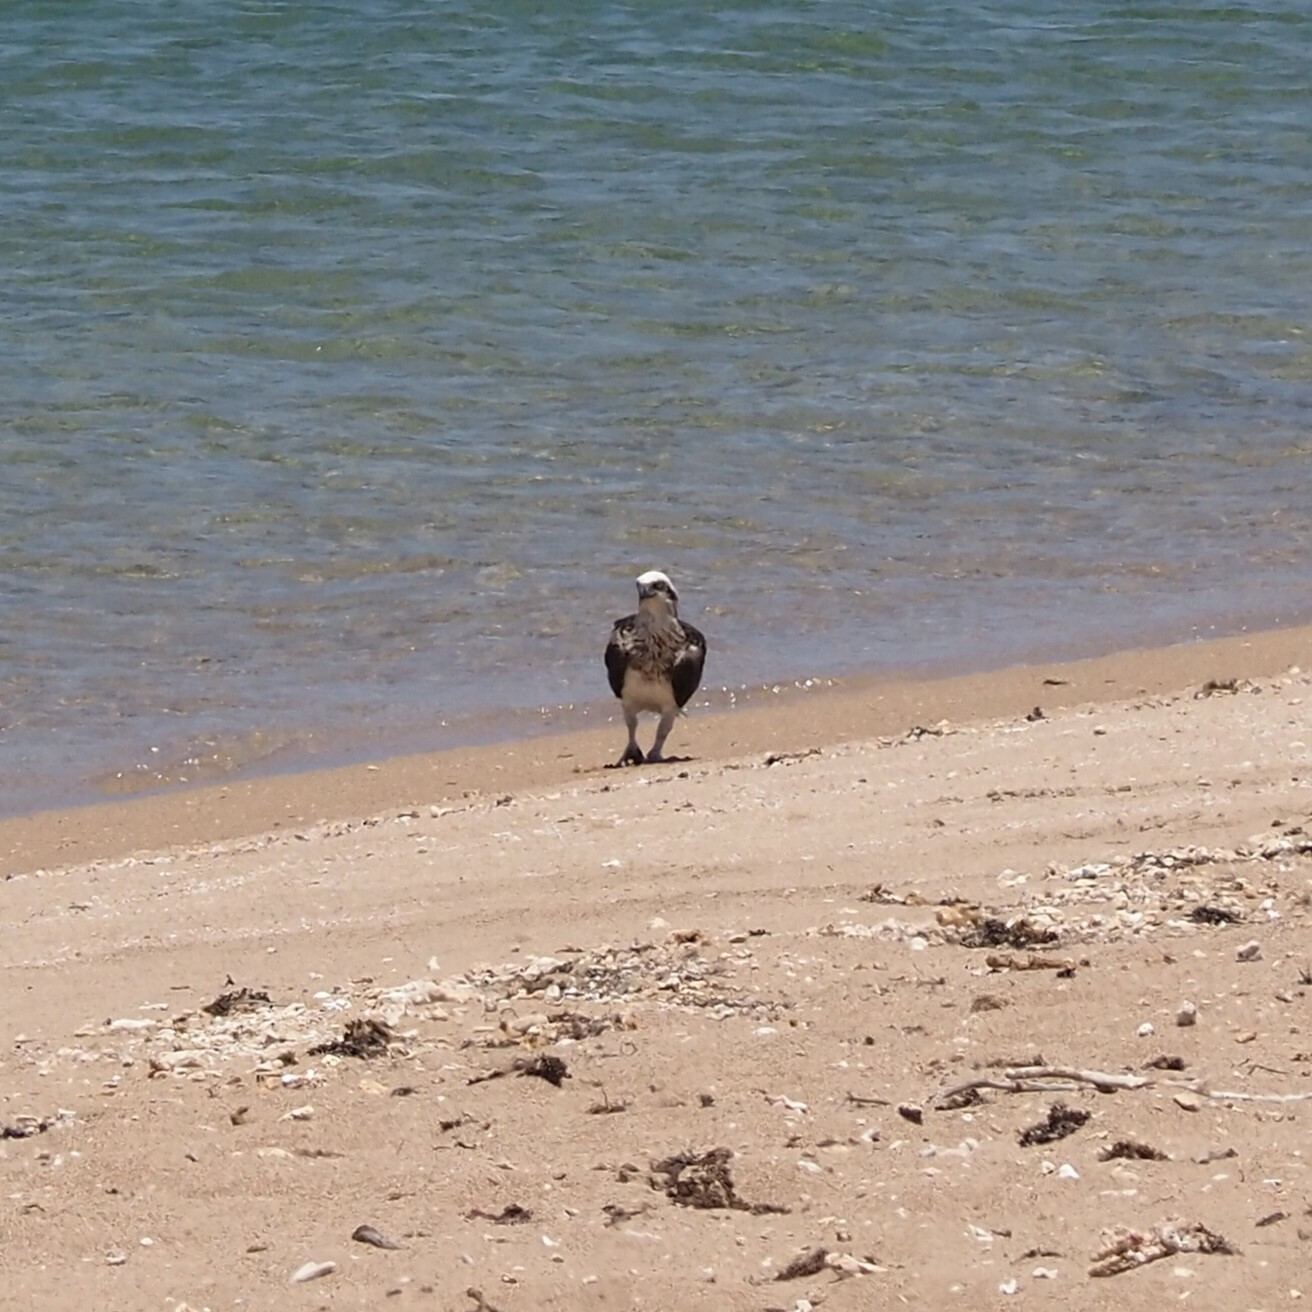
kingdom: Animalia
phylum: Chordata
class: Aves
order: Accipitriformes
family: Pandionidae
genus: Pandion
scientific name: Pandion haliaetus
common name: Osprey
